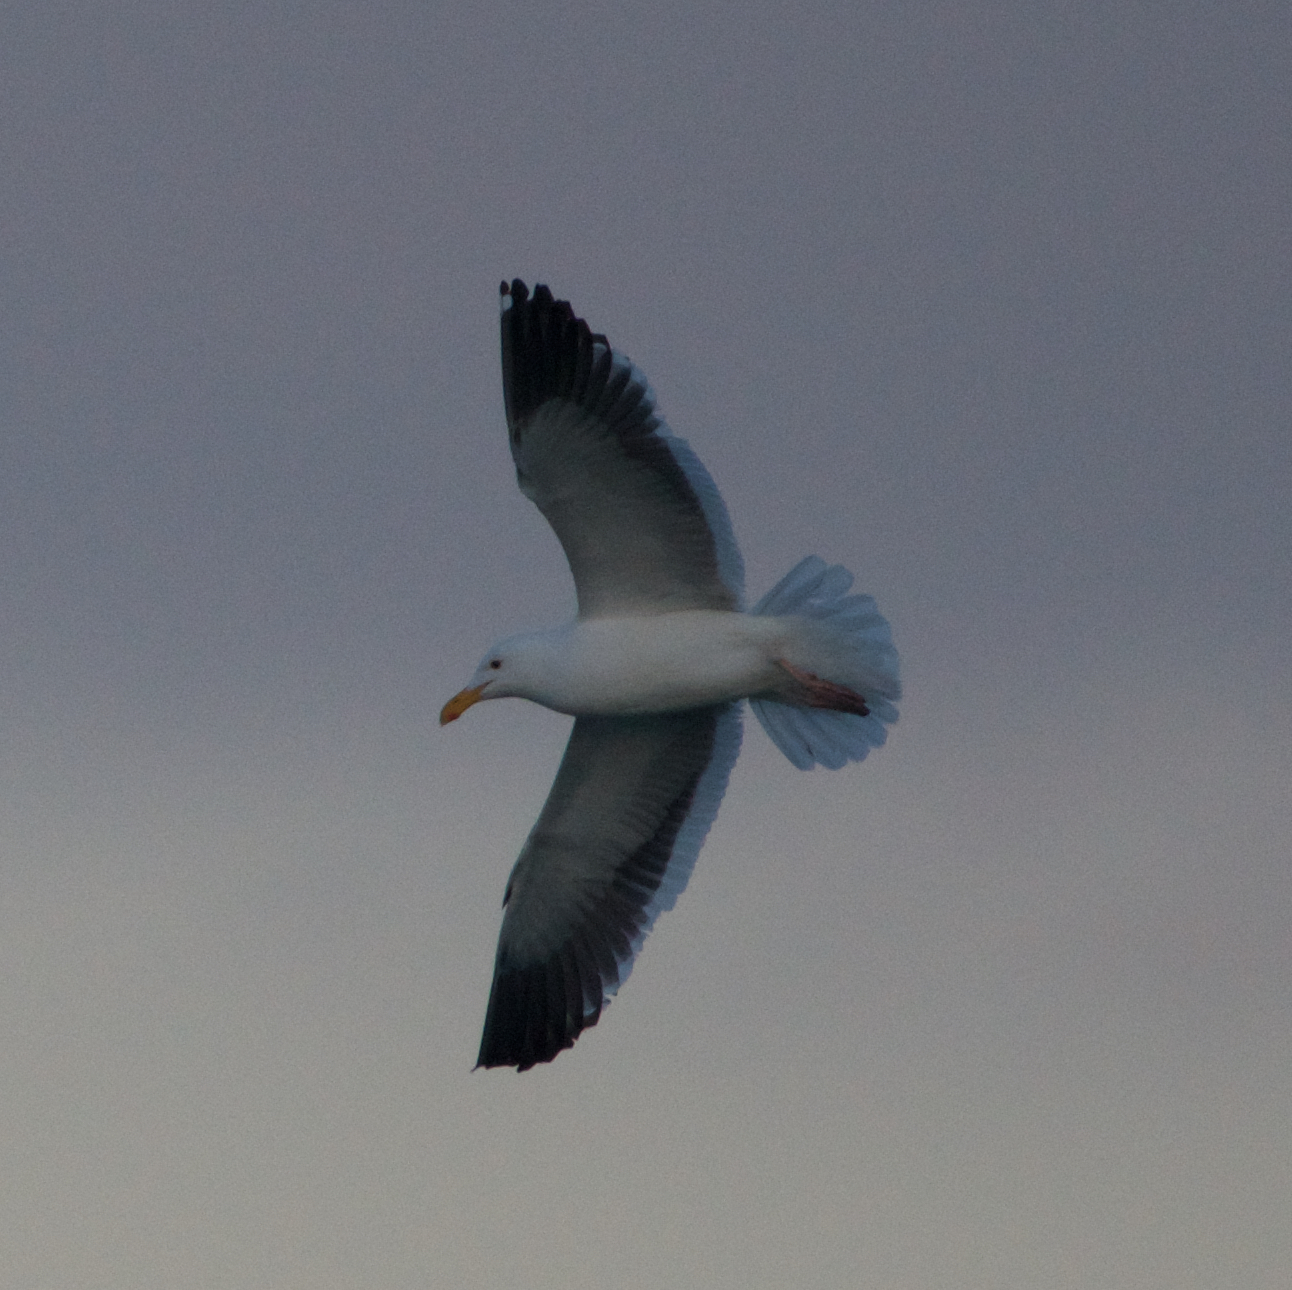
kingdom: Animalia
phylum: Chordata
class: Aves
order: Charadriiformes
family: Laridae
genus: Larus
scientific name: Larus occidentalis
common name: Western gull
